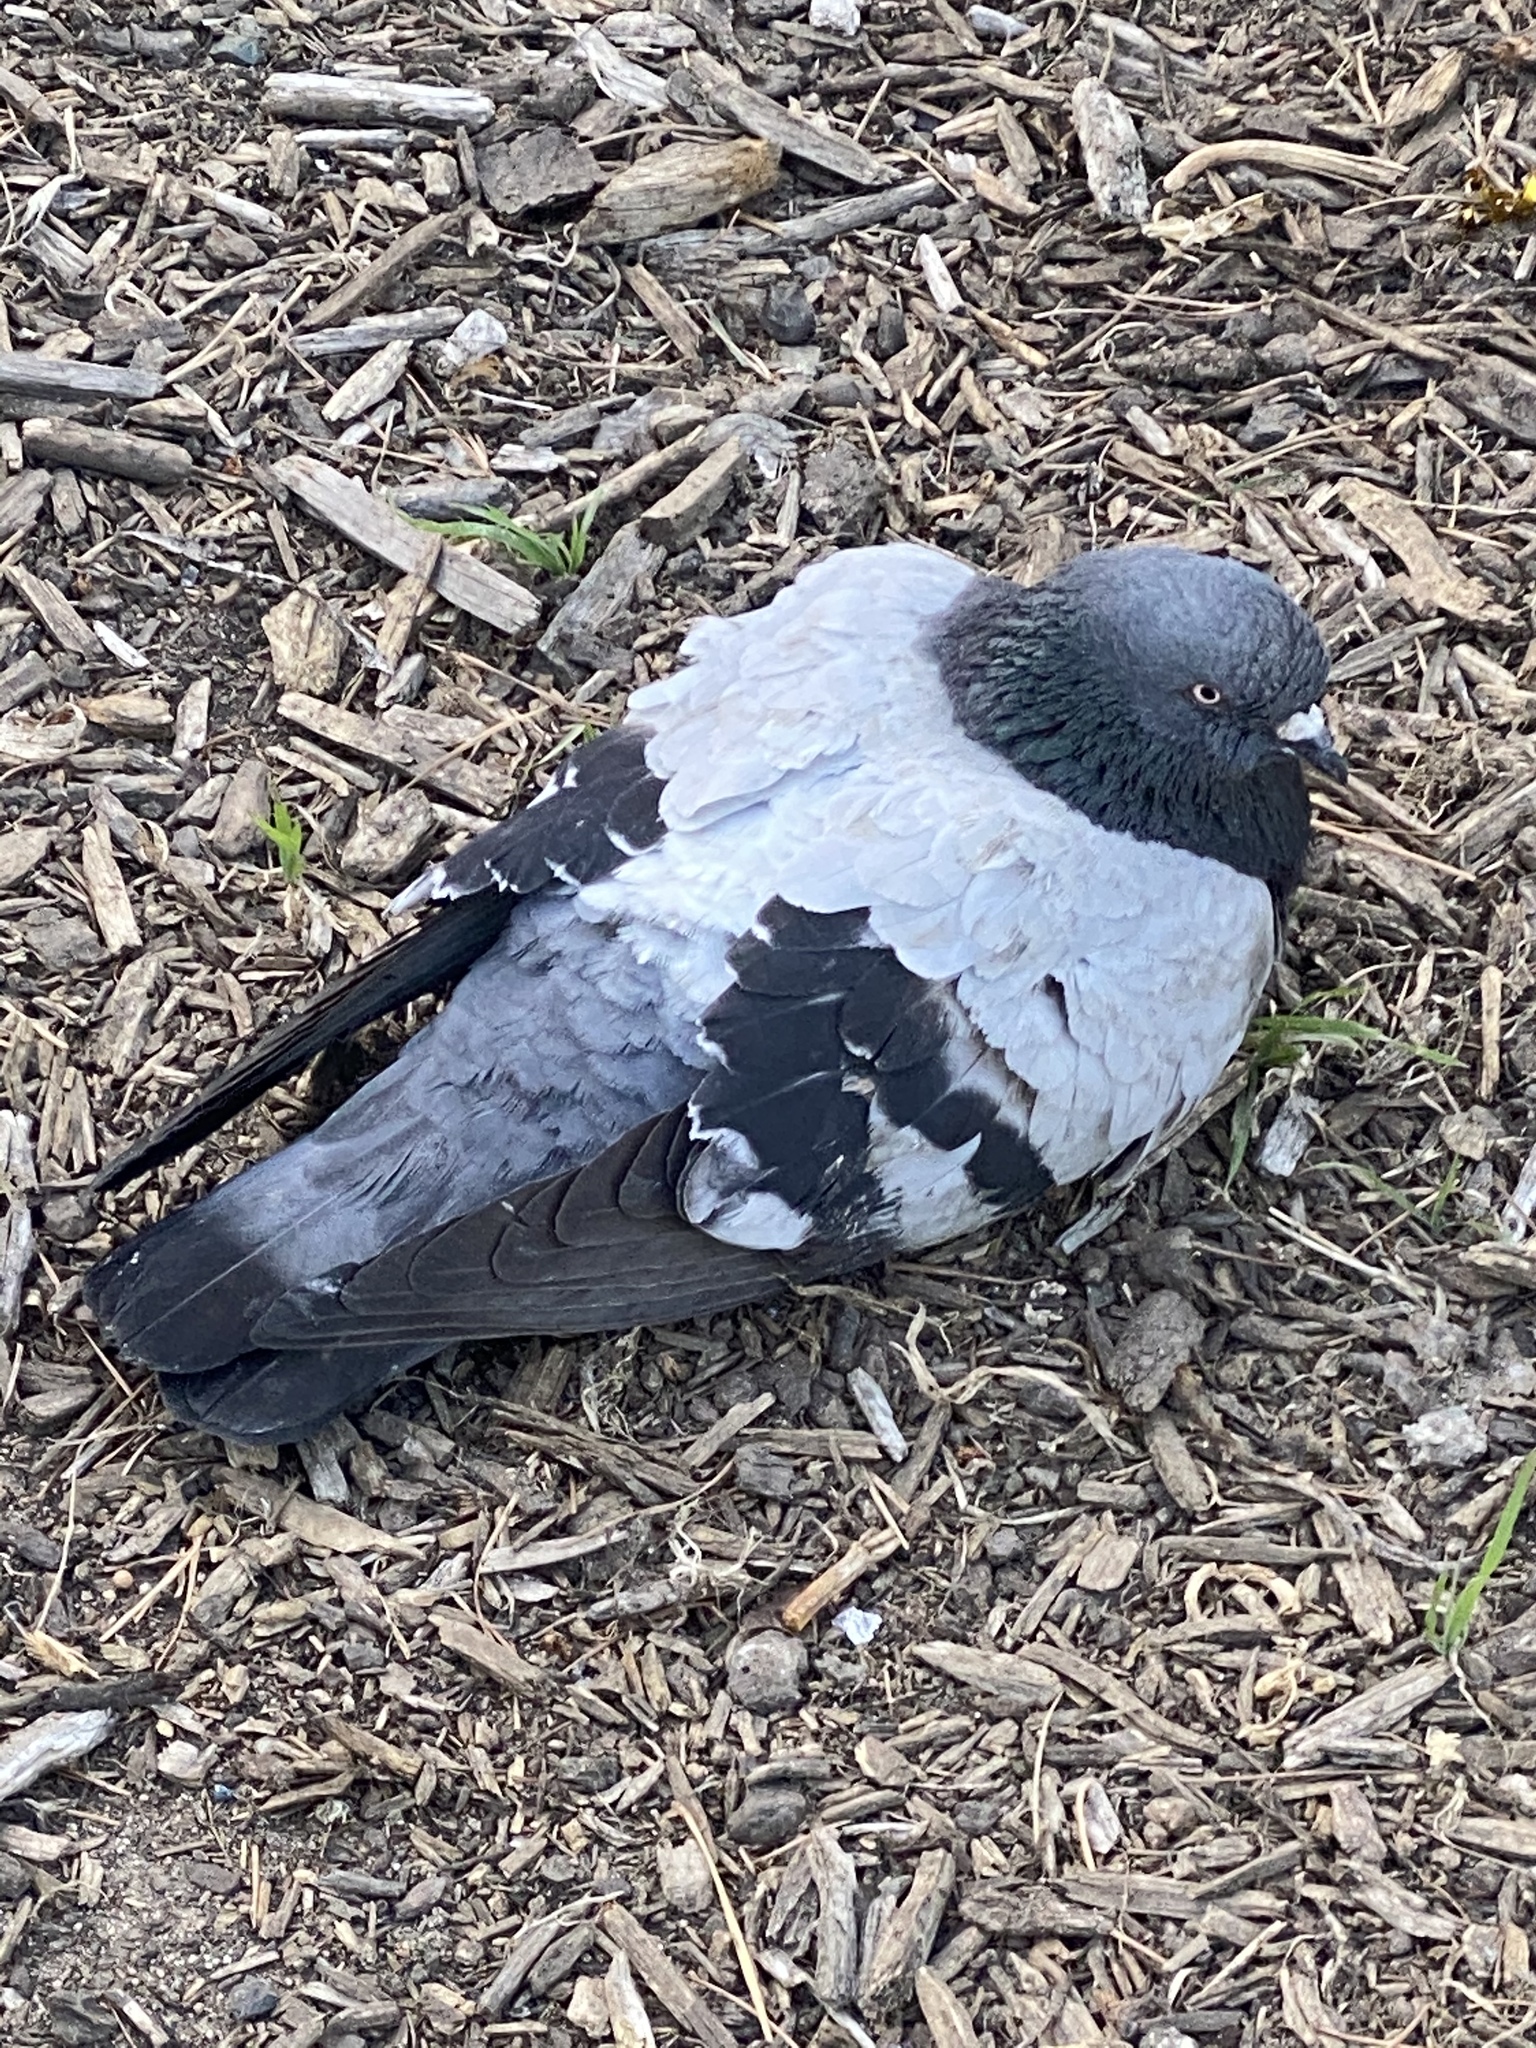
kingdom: Animalia
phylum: Chordata
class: Aves
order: Columbiformes
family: Columbidae
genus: Columba
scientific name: Columba livia
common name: Rock pigeon
